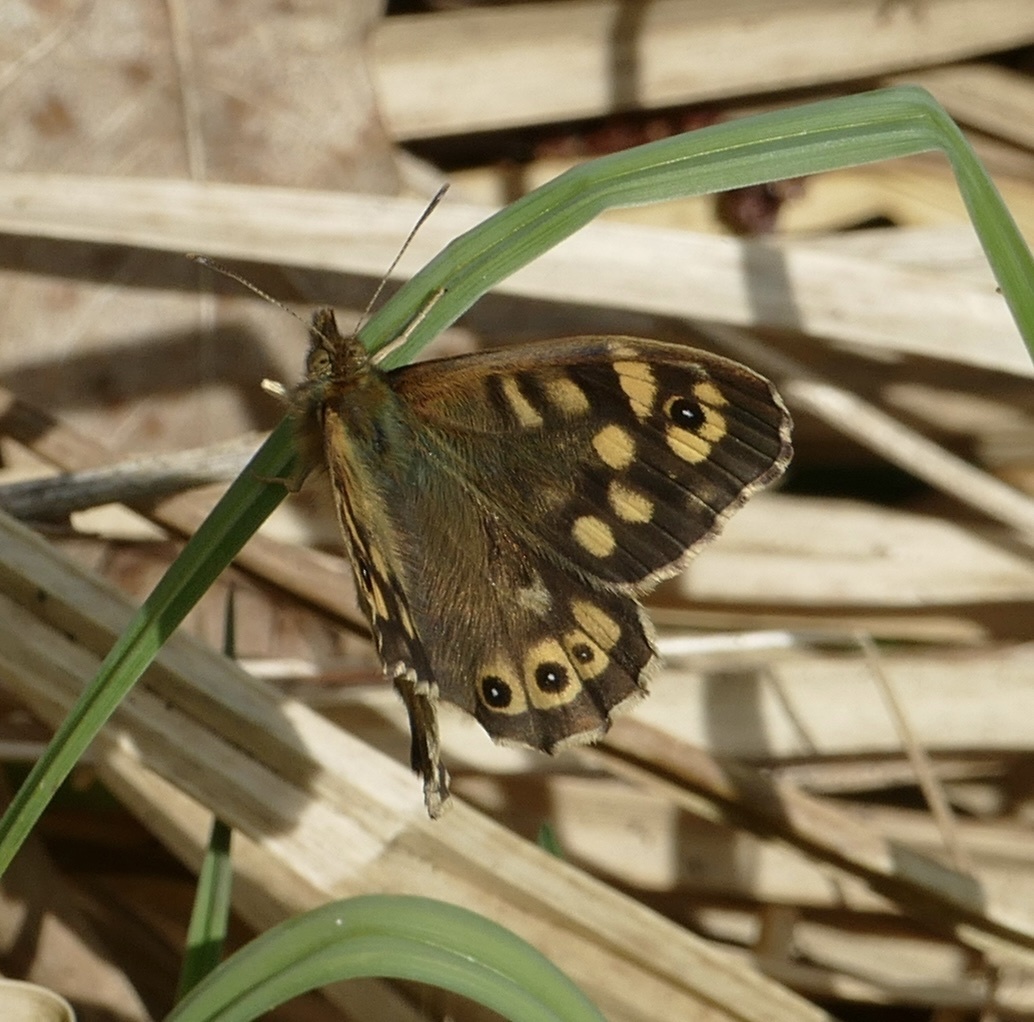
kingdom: Animalia
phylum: Arthropoda
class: Insecta
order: Lepidoptera
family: Nymphalidae
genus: Pararge
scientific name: Pararge aegeria
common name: Speckled wood
